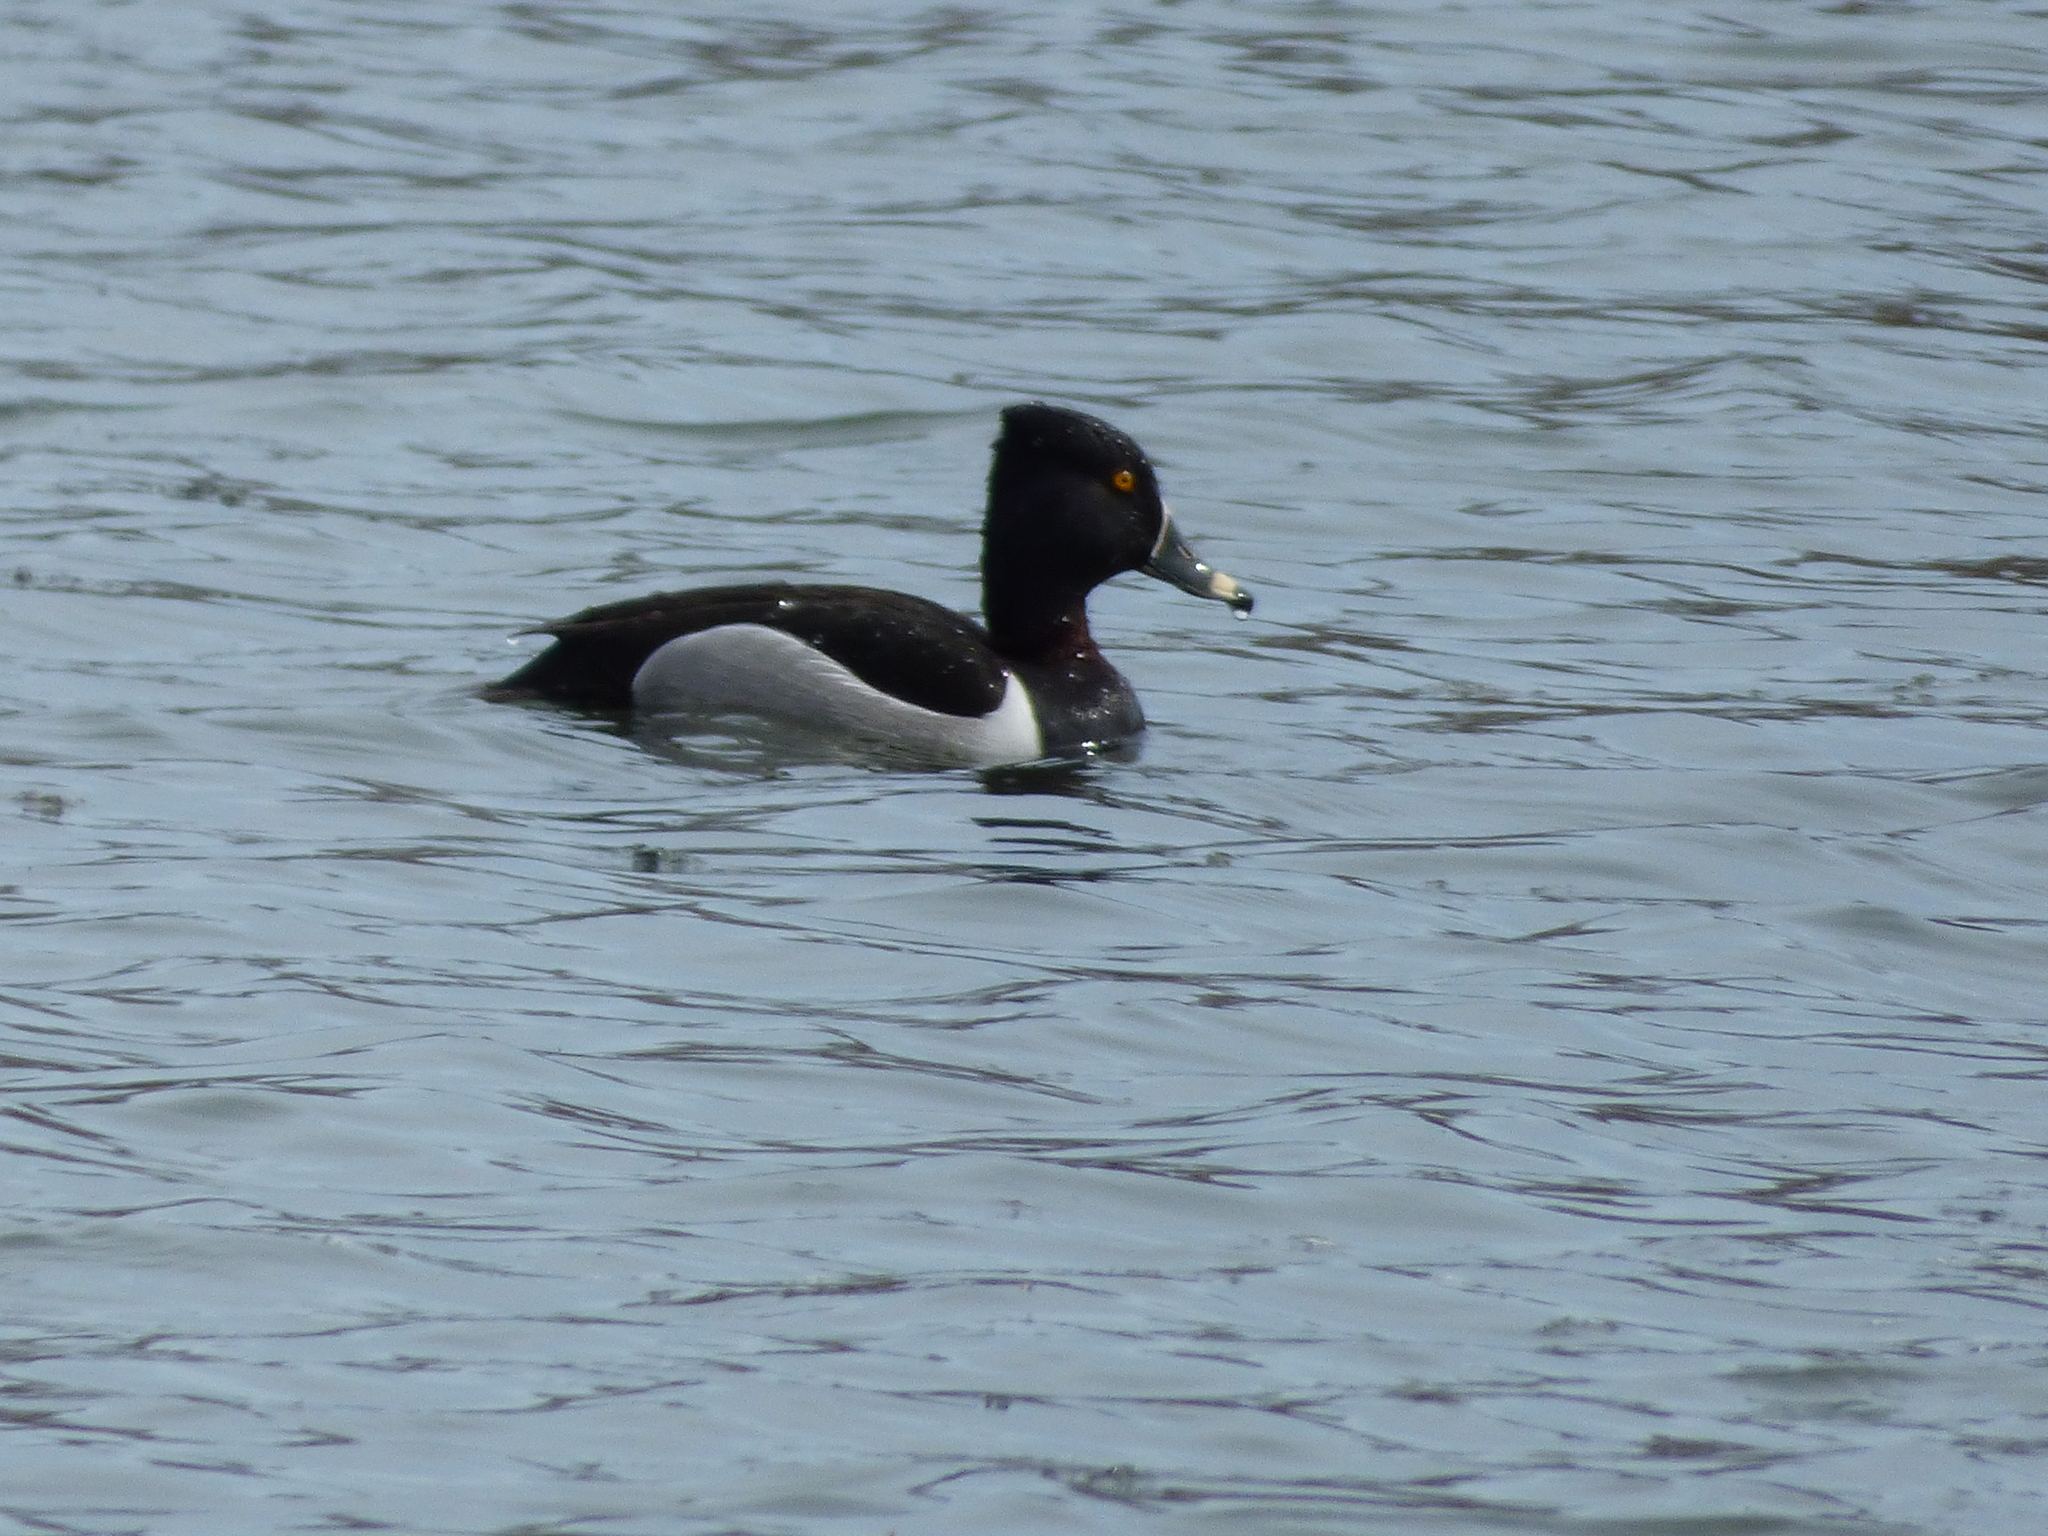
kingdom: Animalia
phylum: Chordata
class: Aves
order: Anseriformes
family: Anatidae
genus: Aythya
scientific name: Aythya collaris
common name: Ring-necked duck
